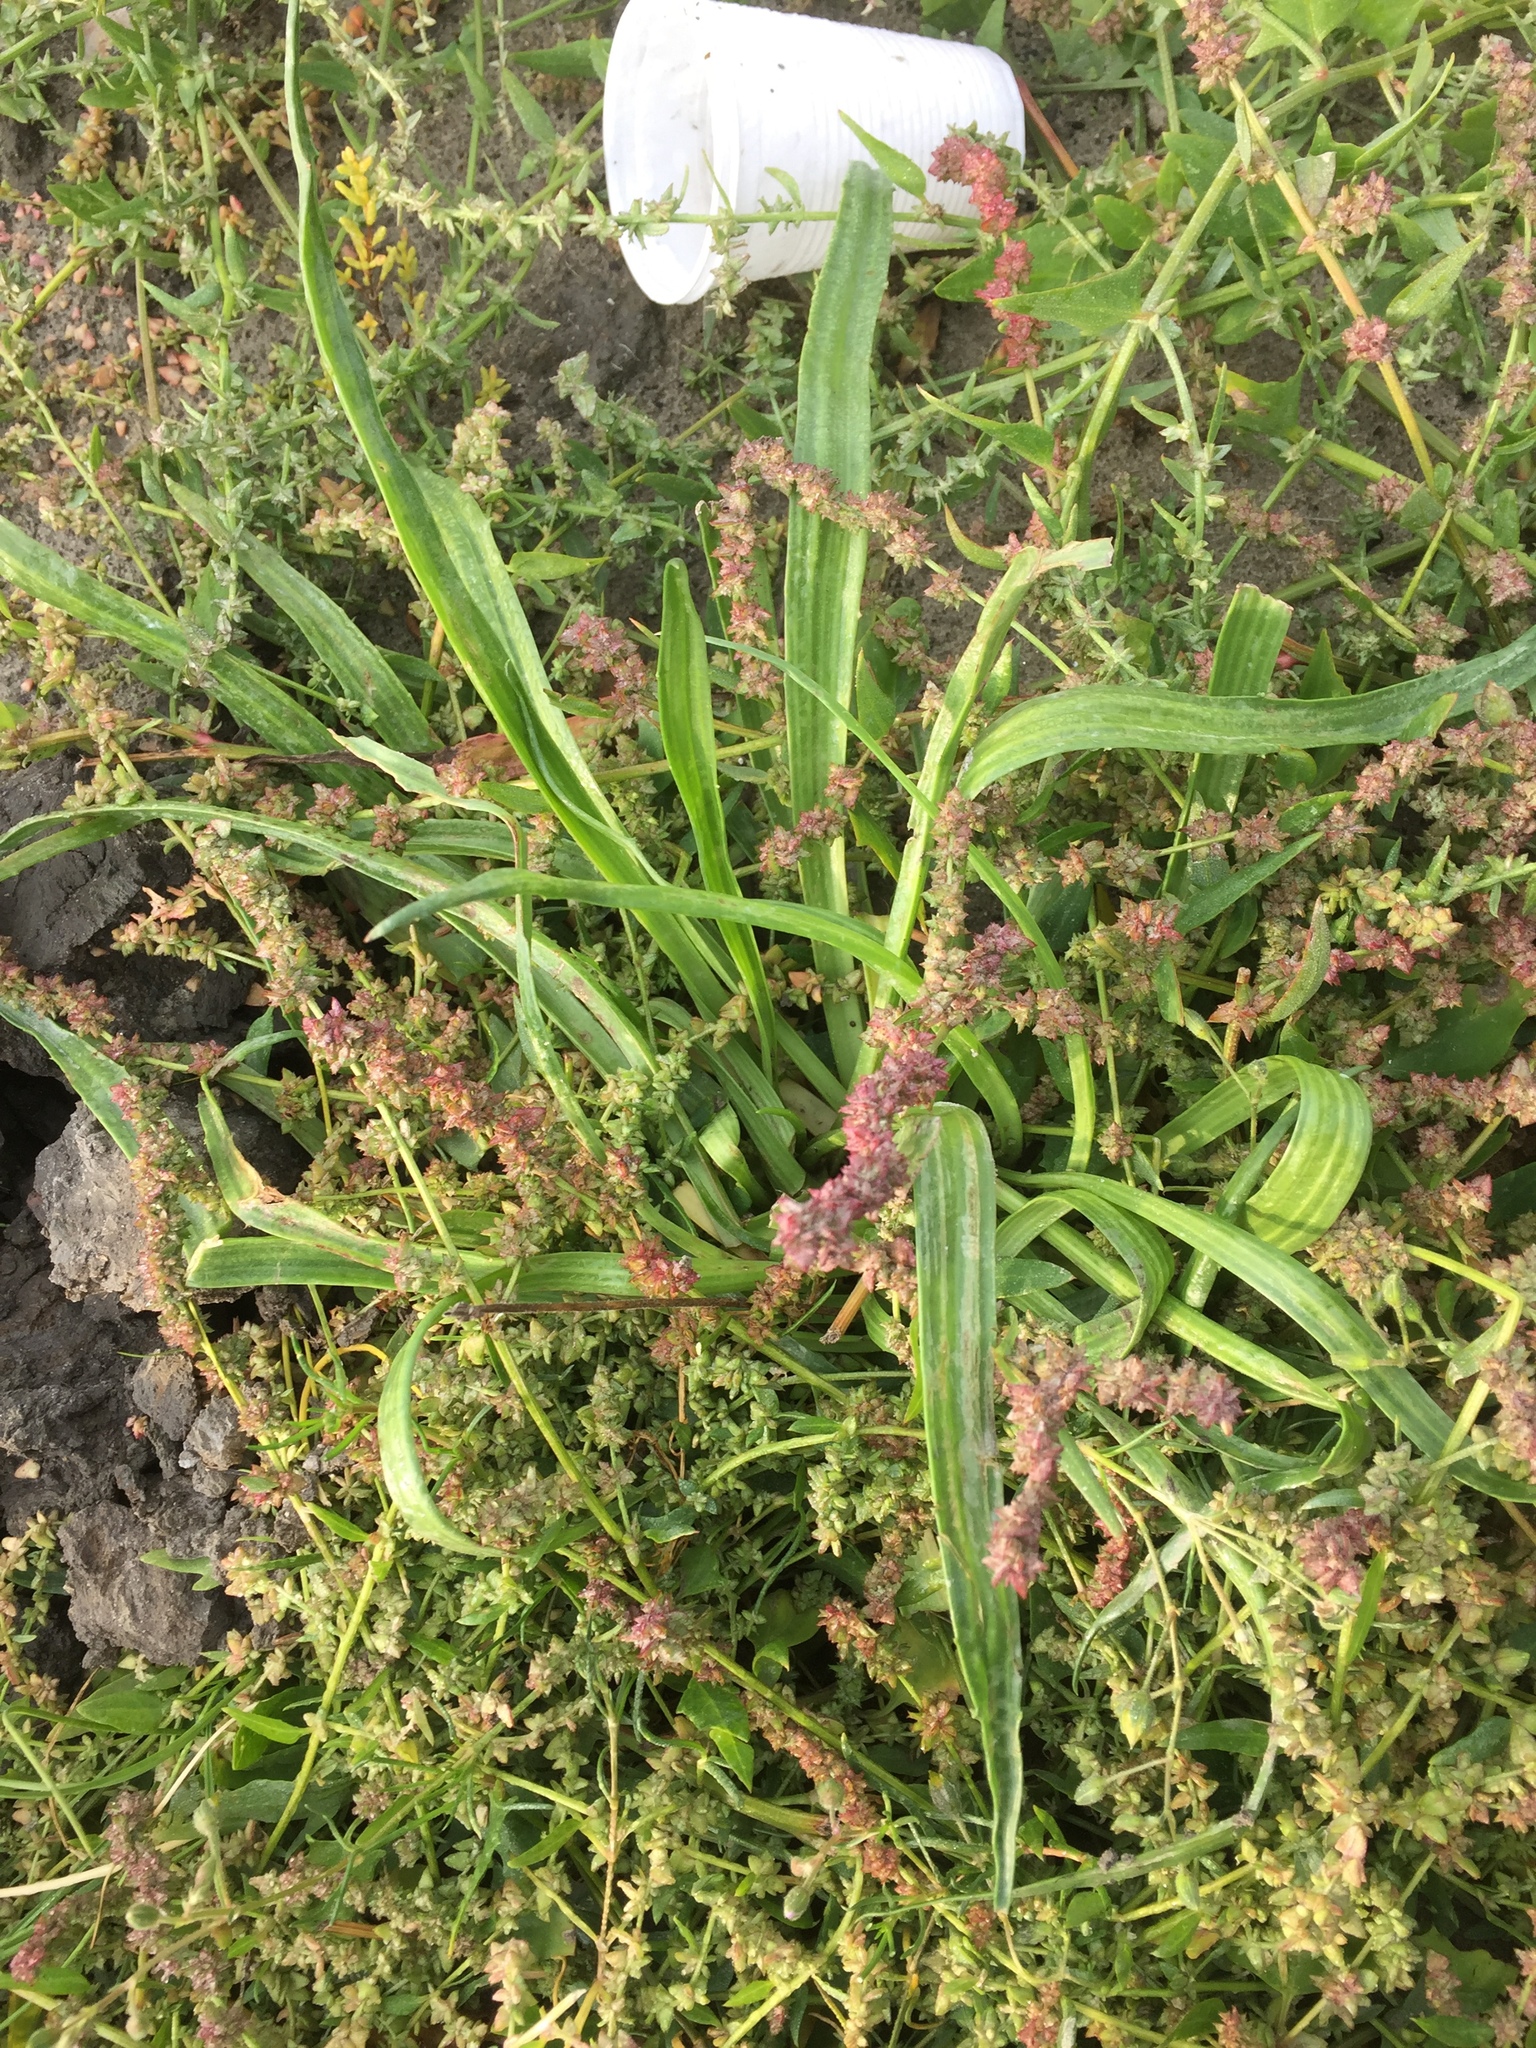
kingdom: Plantae
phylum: Tracheophyta
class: Magnoliopsida
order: Lamiales
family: Plantaginaceae
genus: Plantago
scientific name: Plantago maritima
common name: Sea plantain
